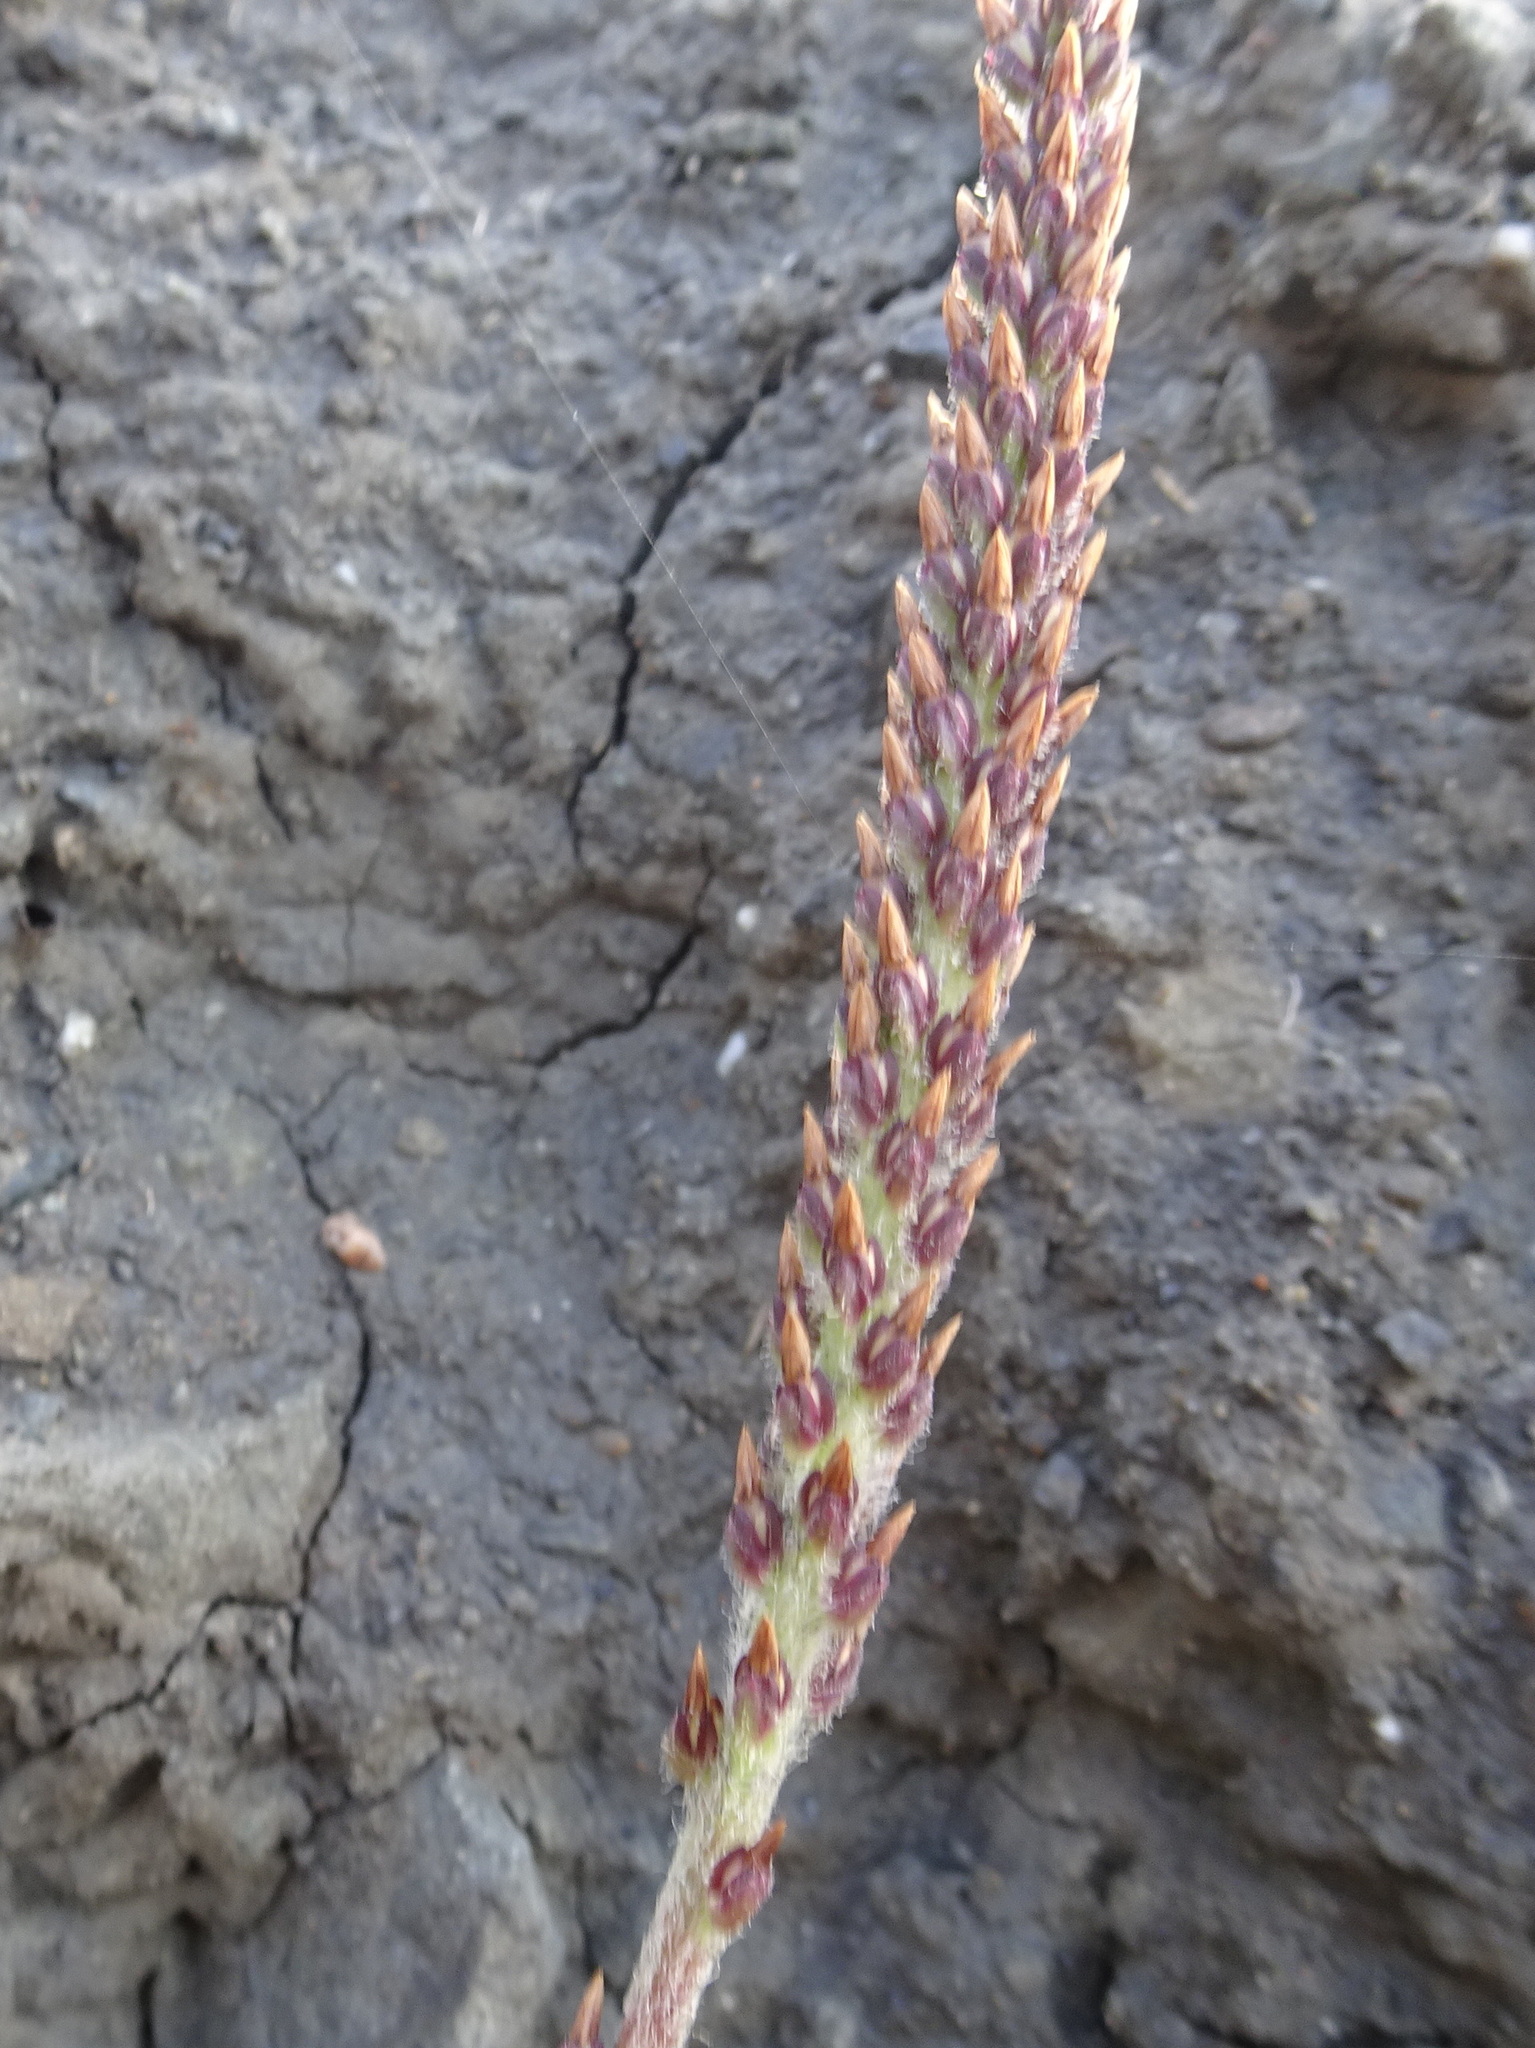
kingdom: Plantae
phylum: Tracheophyta
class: Magnoliopsida
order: Lamiales
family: Plantaginaceae
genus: Plantago
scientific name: Plantago subnuda
